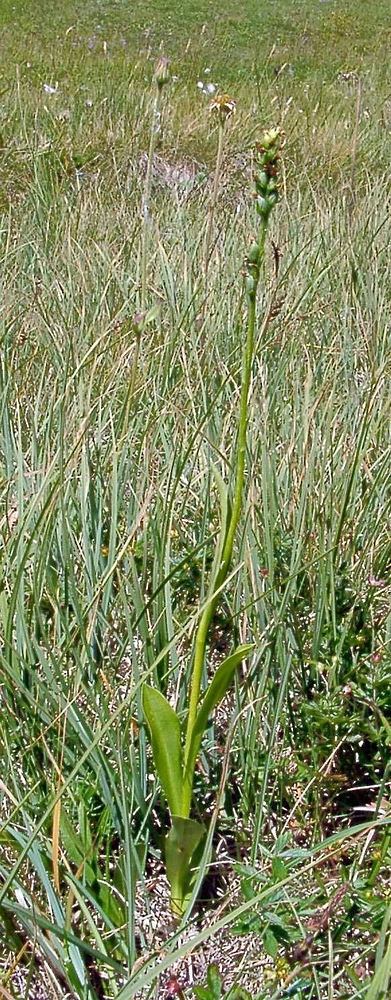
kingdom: Plantae
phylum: Tracheophyta
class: Liliopsida
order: Asparagales
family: Orchidaceae
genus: Pseudorchis
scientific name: Pseudorchis albida
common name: Small-white orchid
